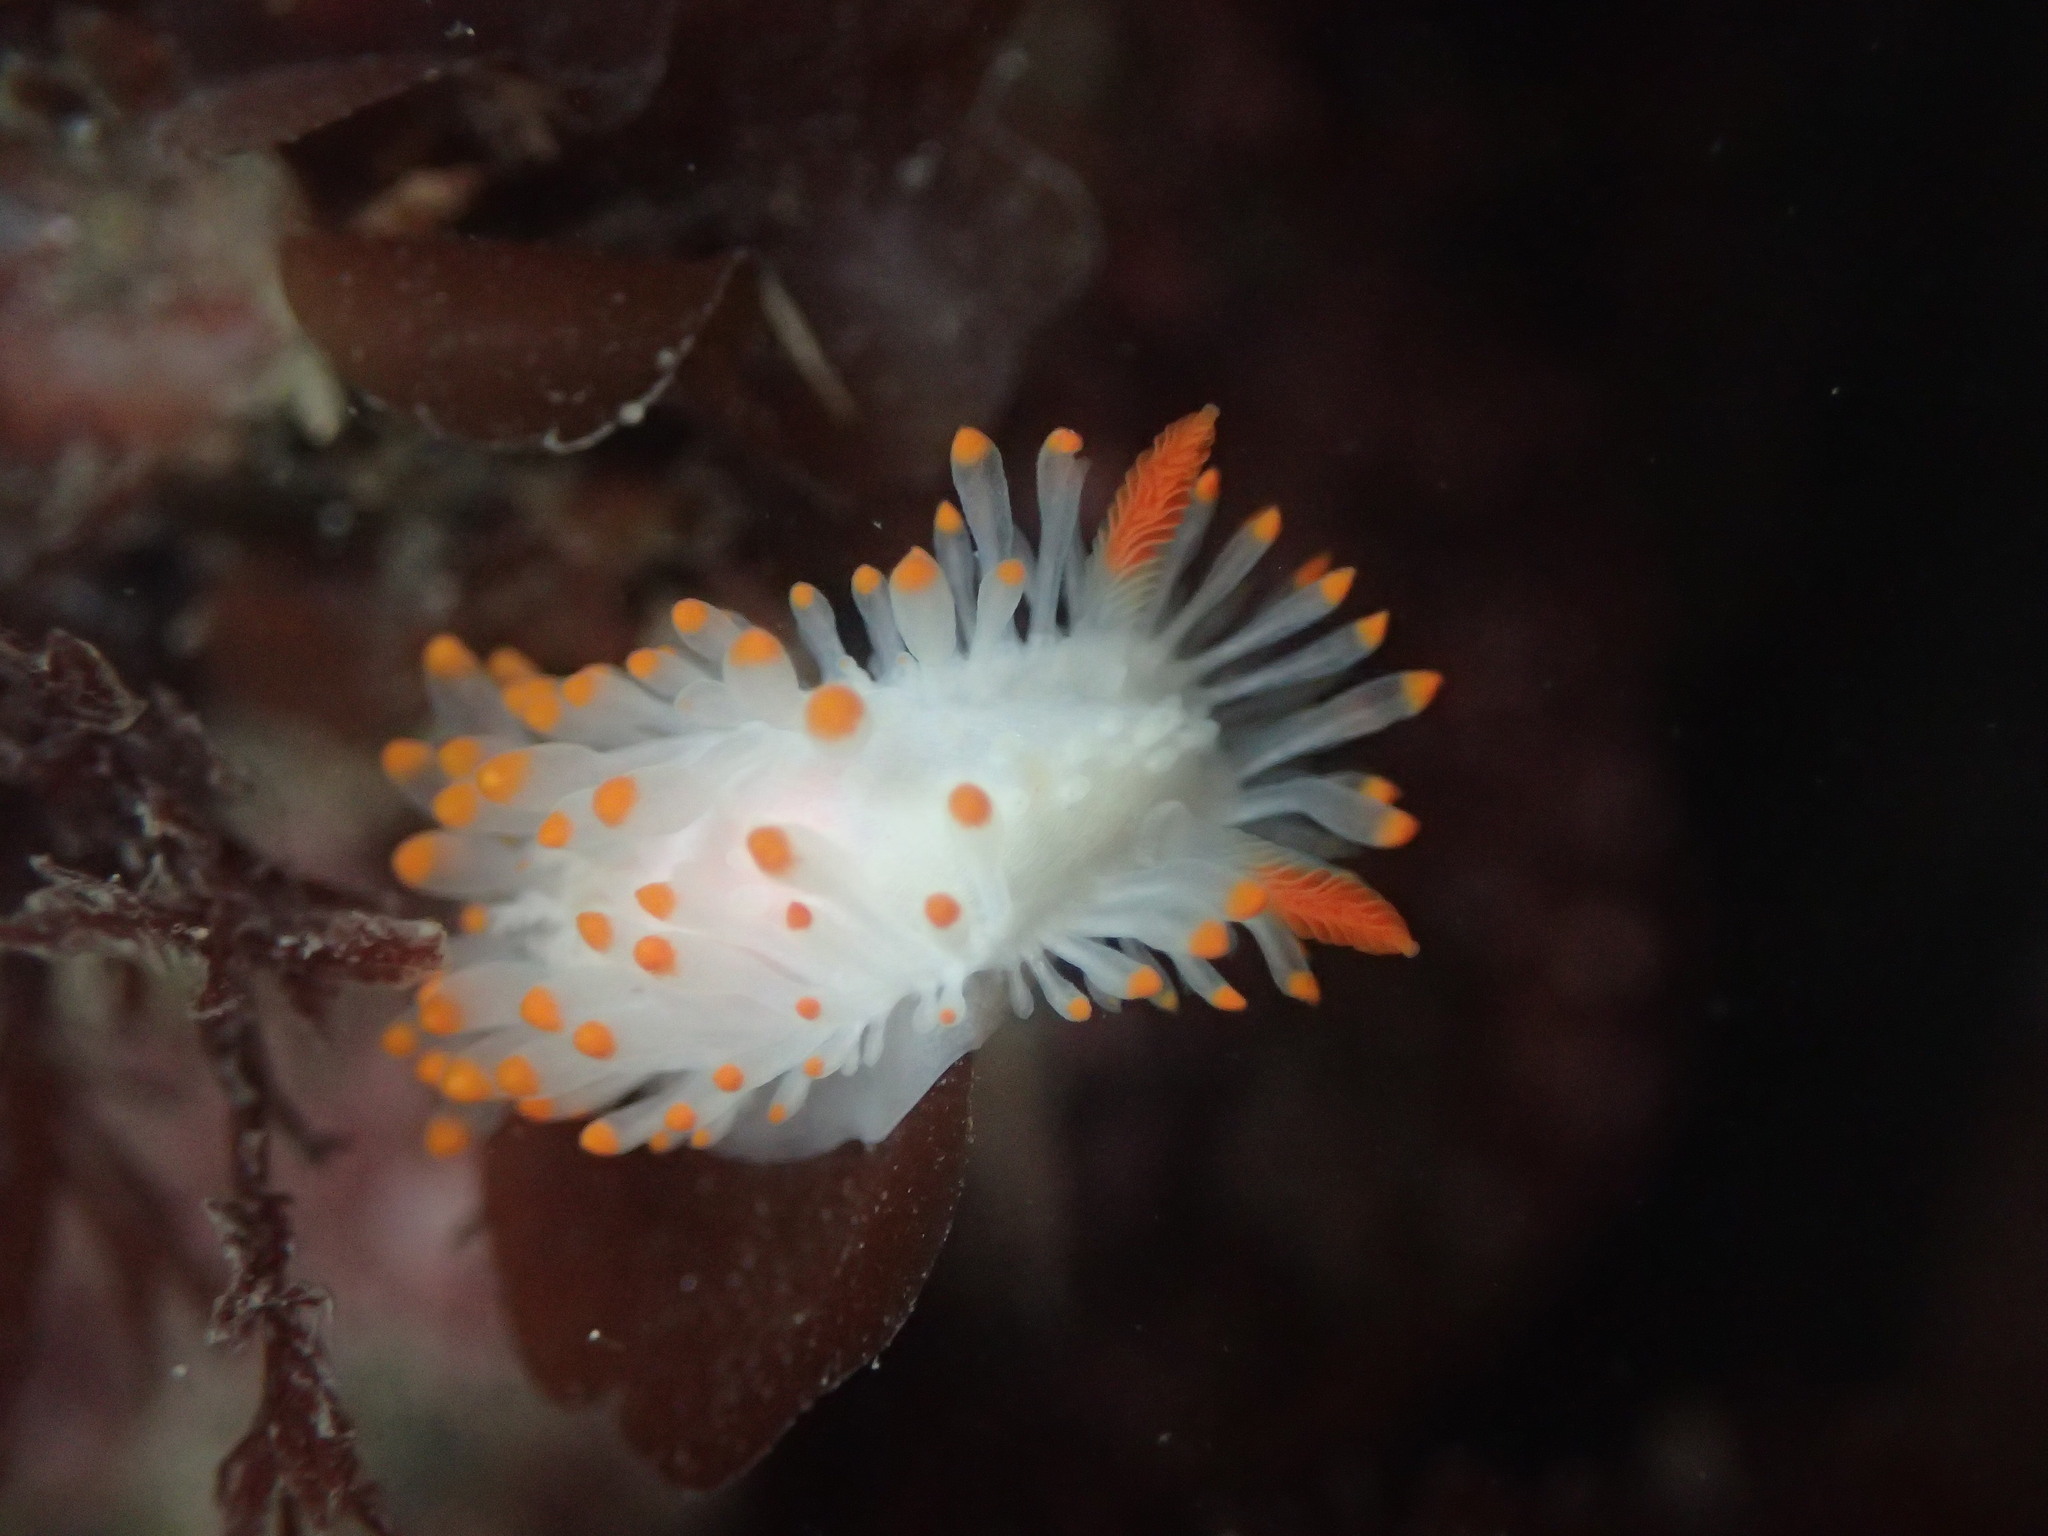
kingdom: Animalia
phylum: Mollusca
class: Gastropoda
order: Nudibranchia
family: Polyceridae
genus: Limacia
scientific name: Limacia cockerelli
